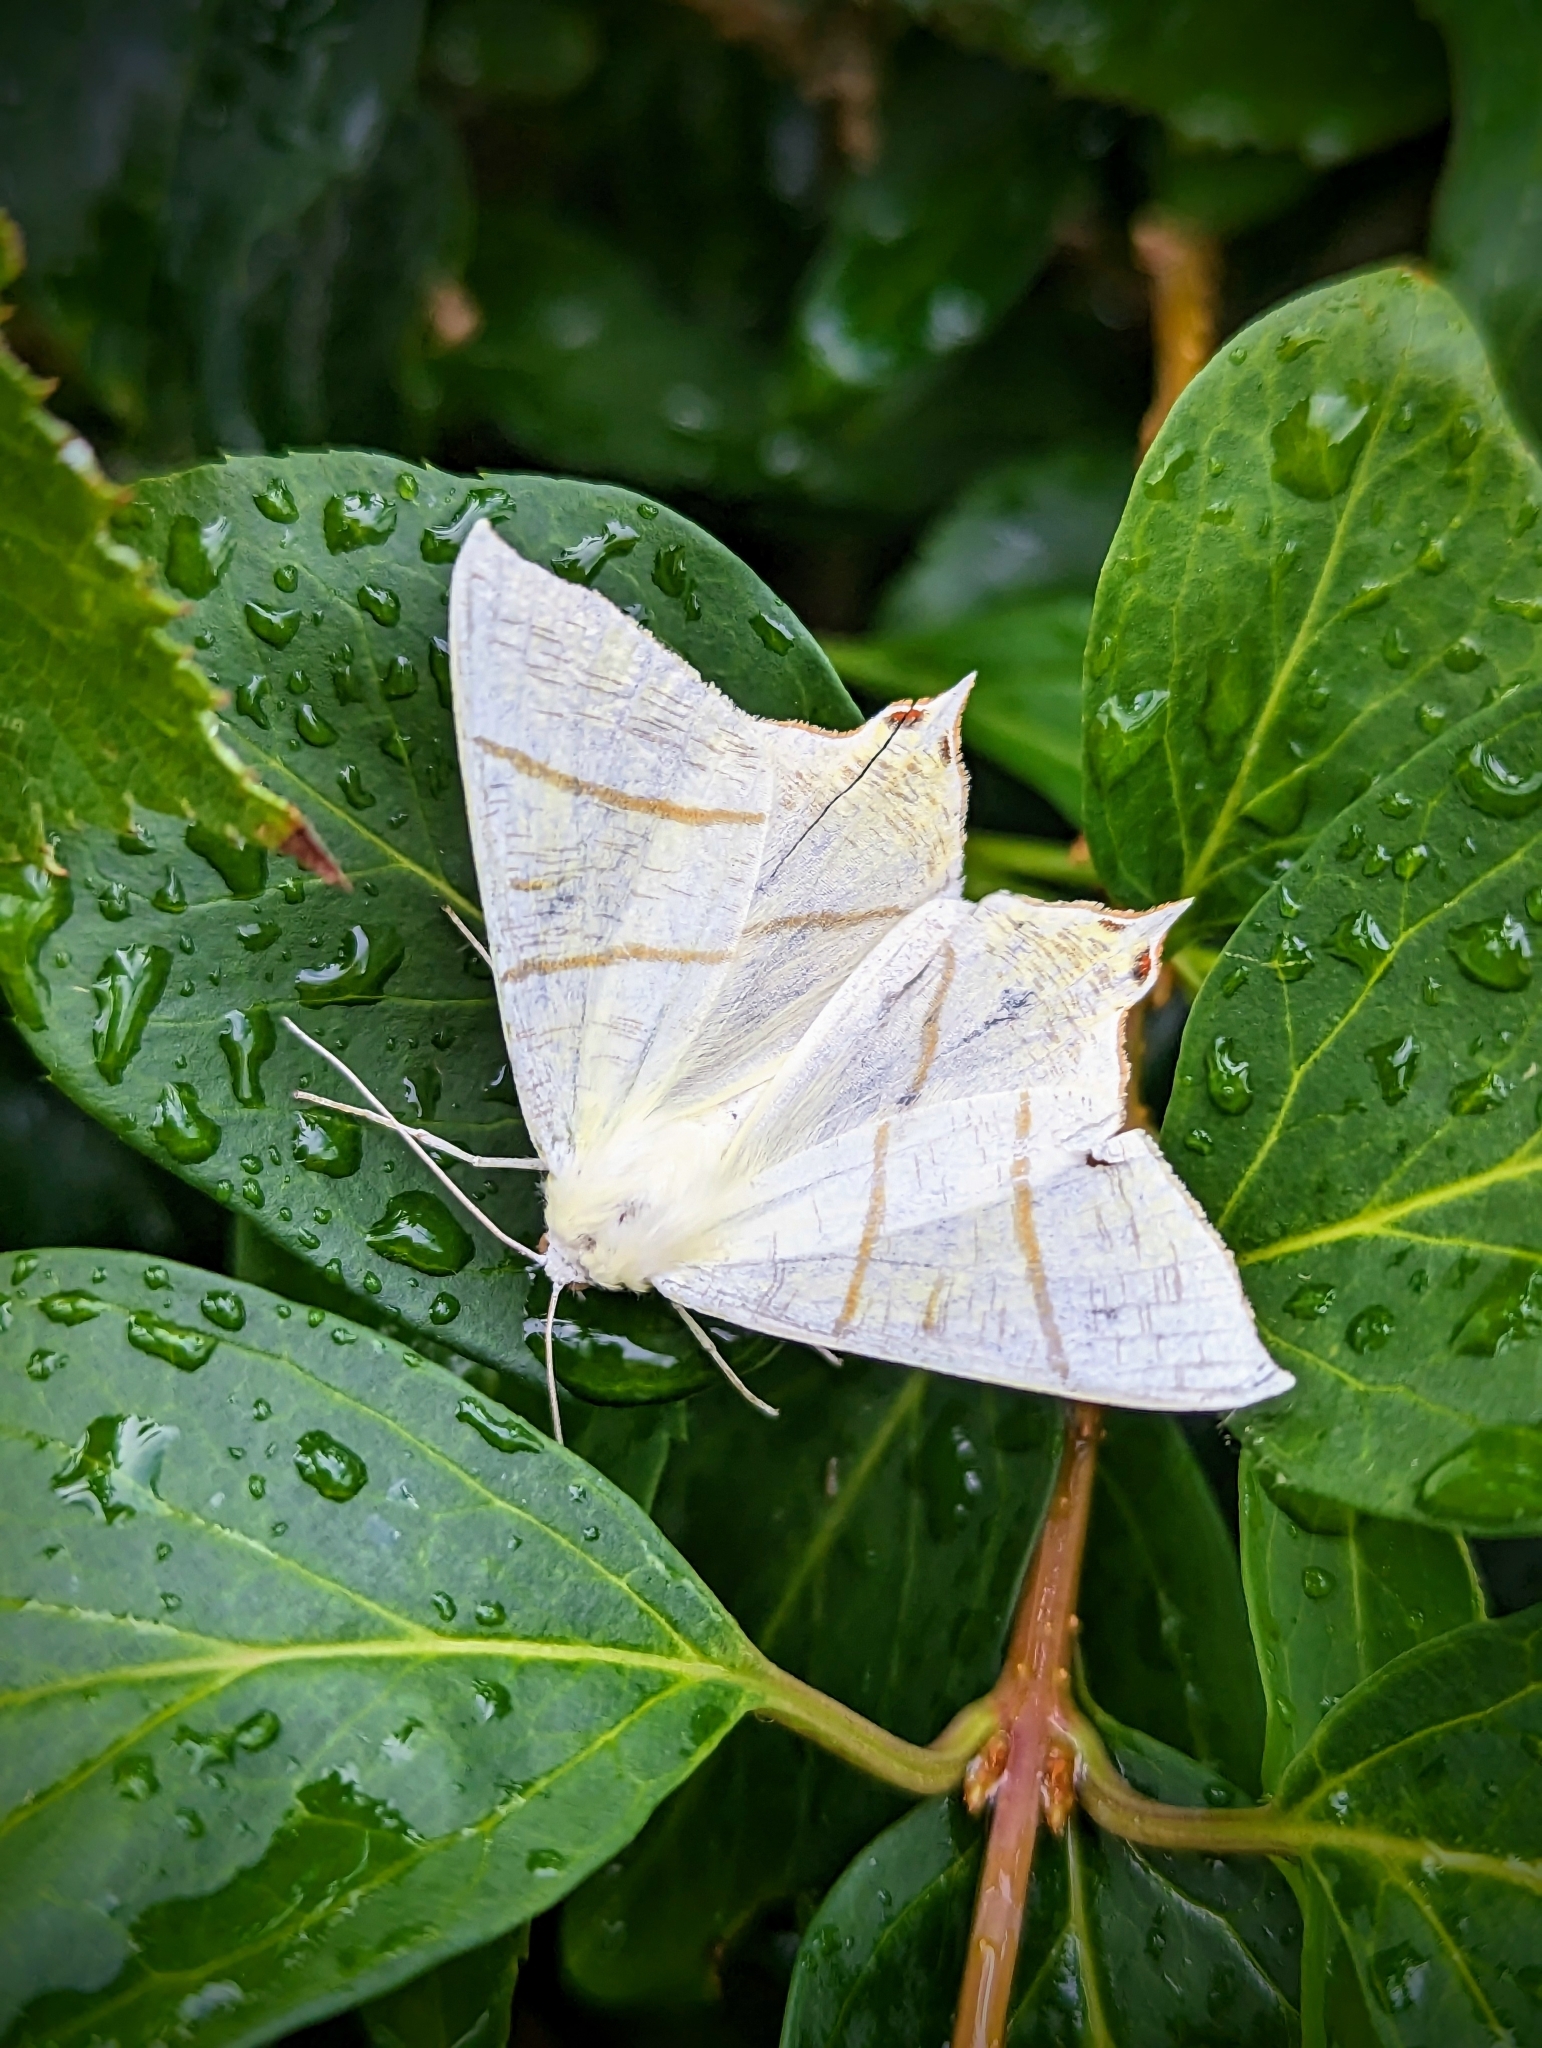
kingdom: Animalia
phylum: Arthropoda
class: Insecta
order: Lepidoptera
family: Geometridae
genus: Ourapteryx
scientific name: Ourapteryx sambucaria
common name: Swallow-tailed moth
